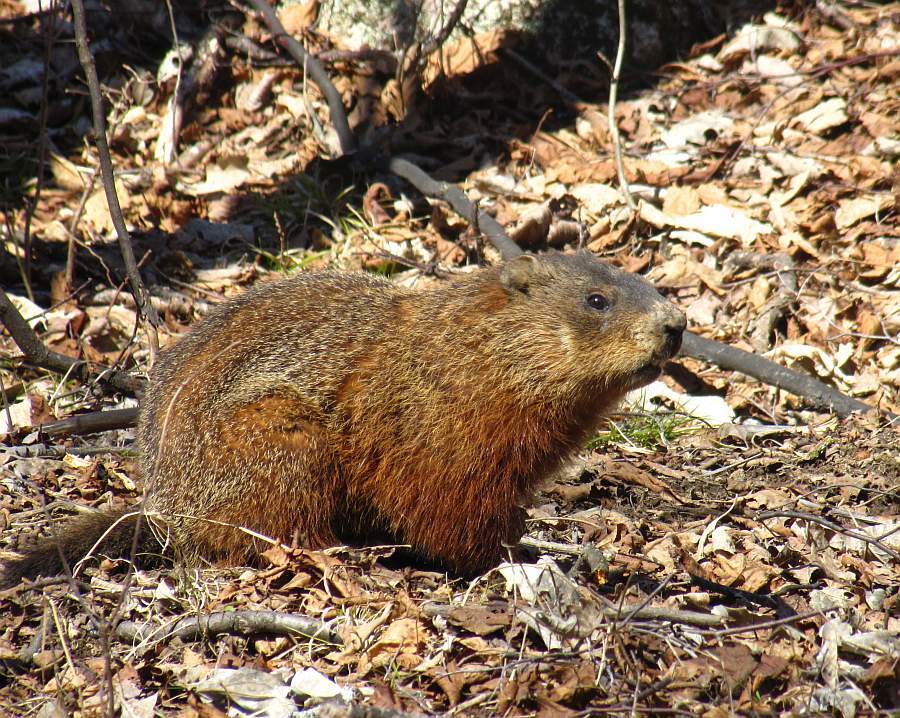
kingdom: Animalia
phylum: Chordata
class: Mammalia
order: Rodentia
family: Sciuridae
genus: Marmota
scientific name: Marmota monax
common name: Groundhog
